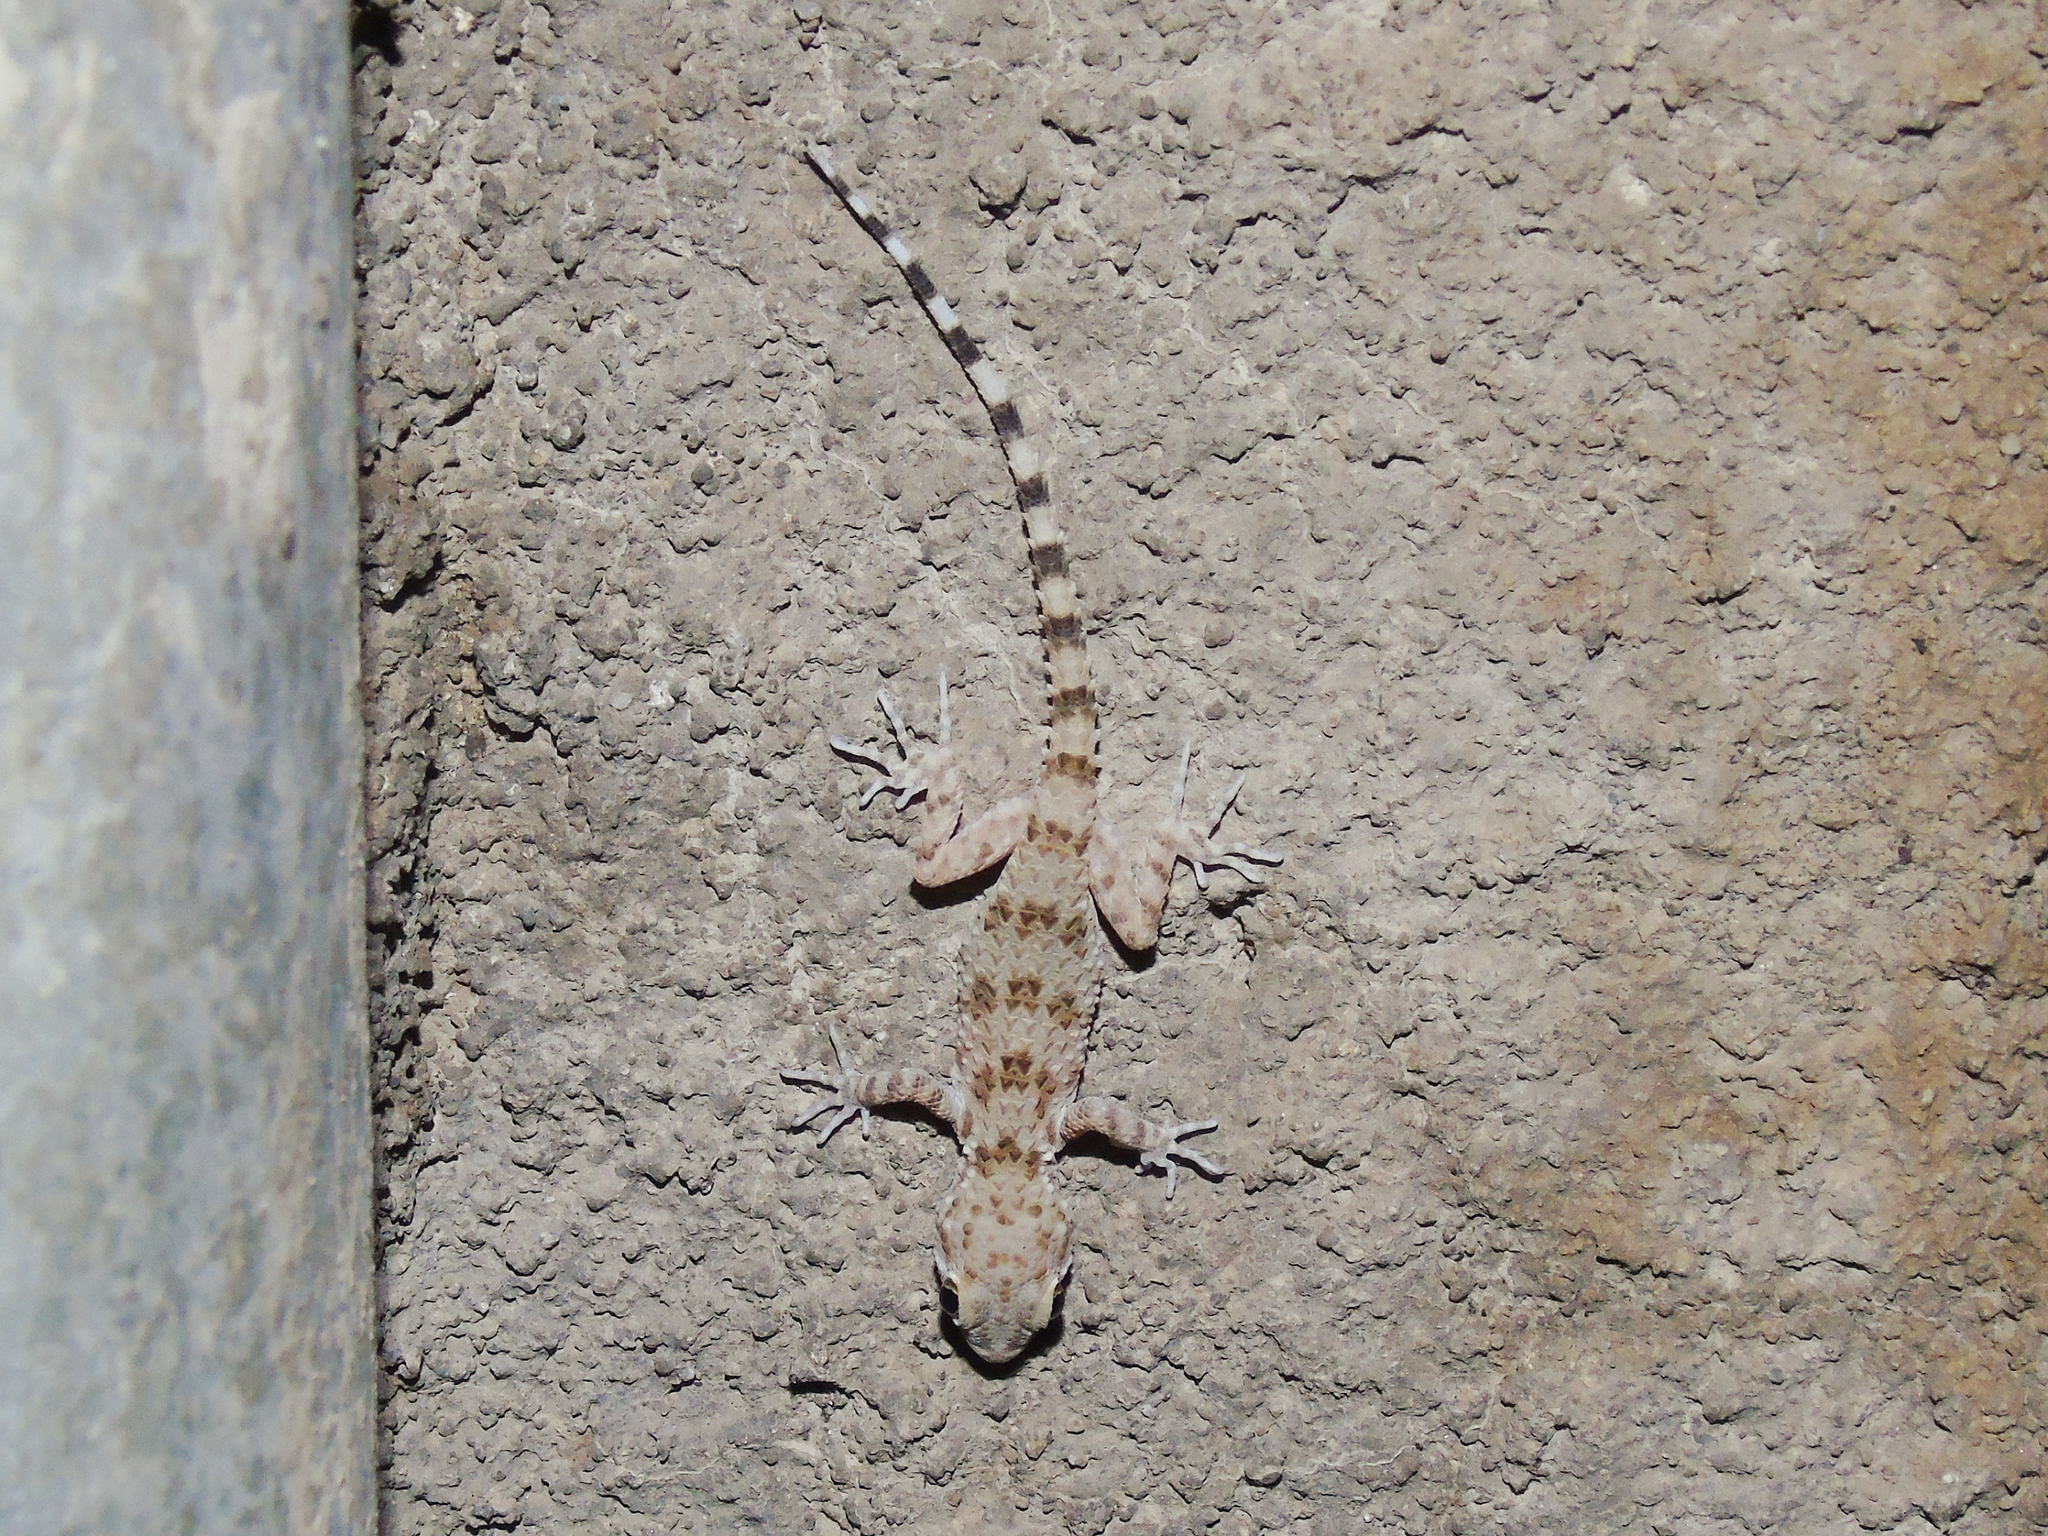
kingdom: Animalia
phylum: Chordata
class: Squamata
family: Gekkonidae
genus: Tenuidactylus
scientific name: Tenuidactylus caspius
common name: Caspian bent-toed gecko
